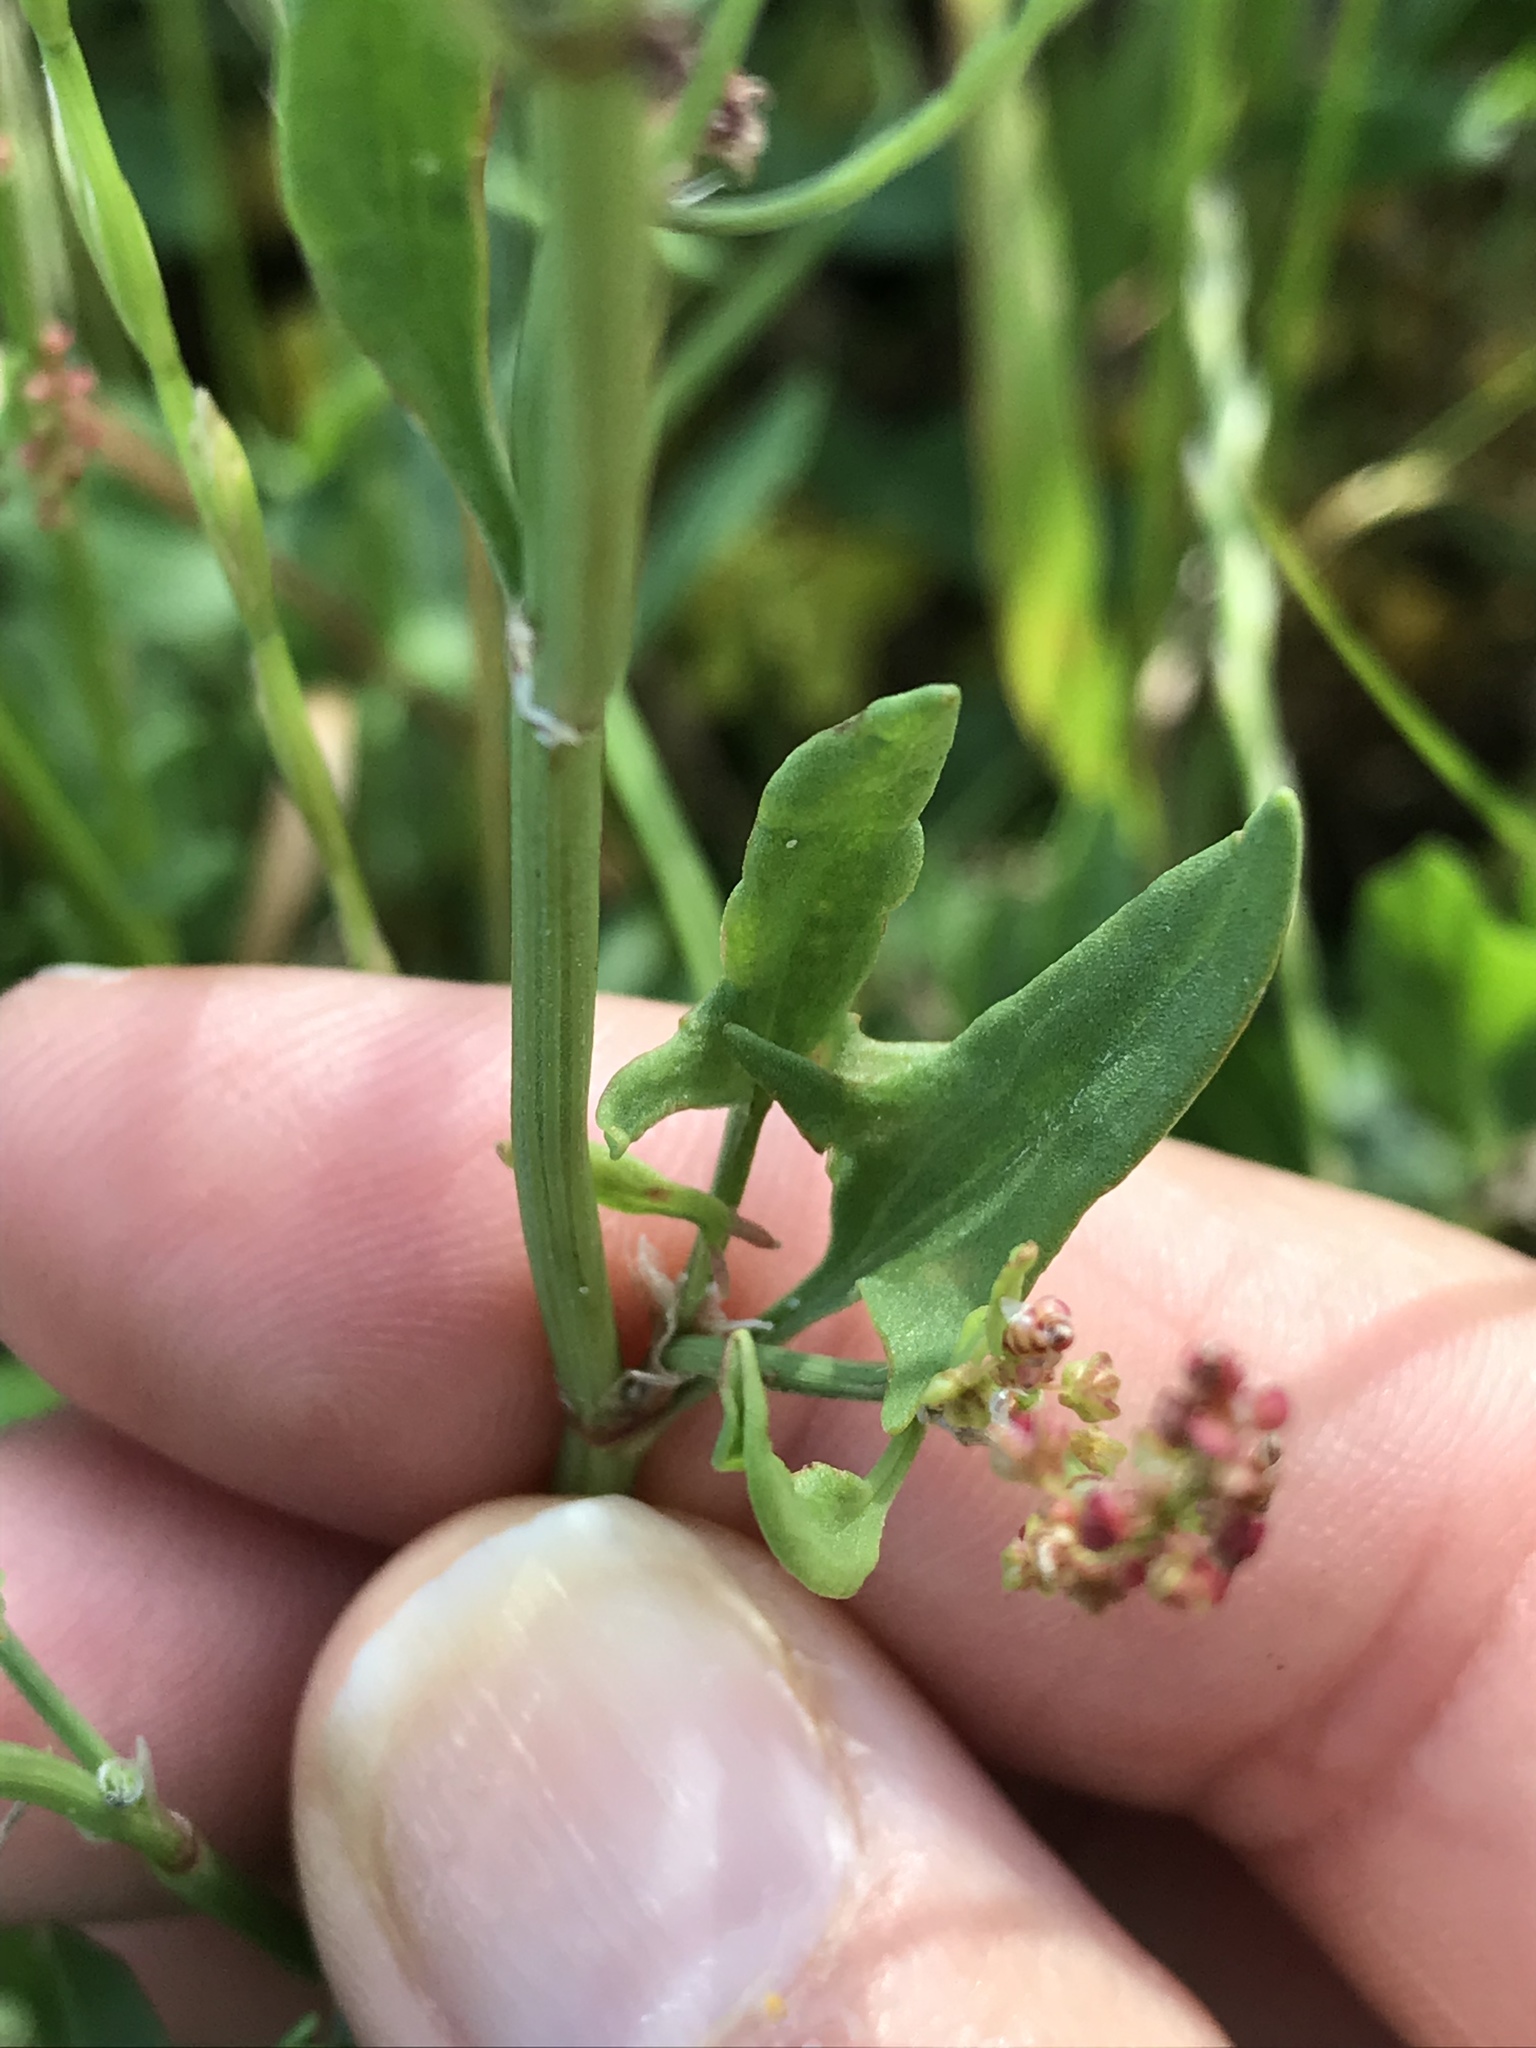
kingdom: Plantae
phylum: Tracheophyta
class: Magnoliopsida
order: Caryophyllales
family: Polygonaceae
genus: Rumex
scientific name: Rumex acetosella
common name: Common sheep sorrel
